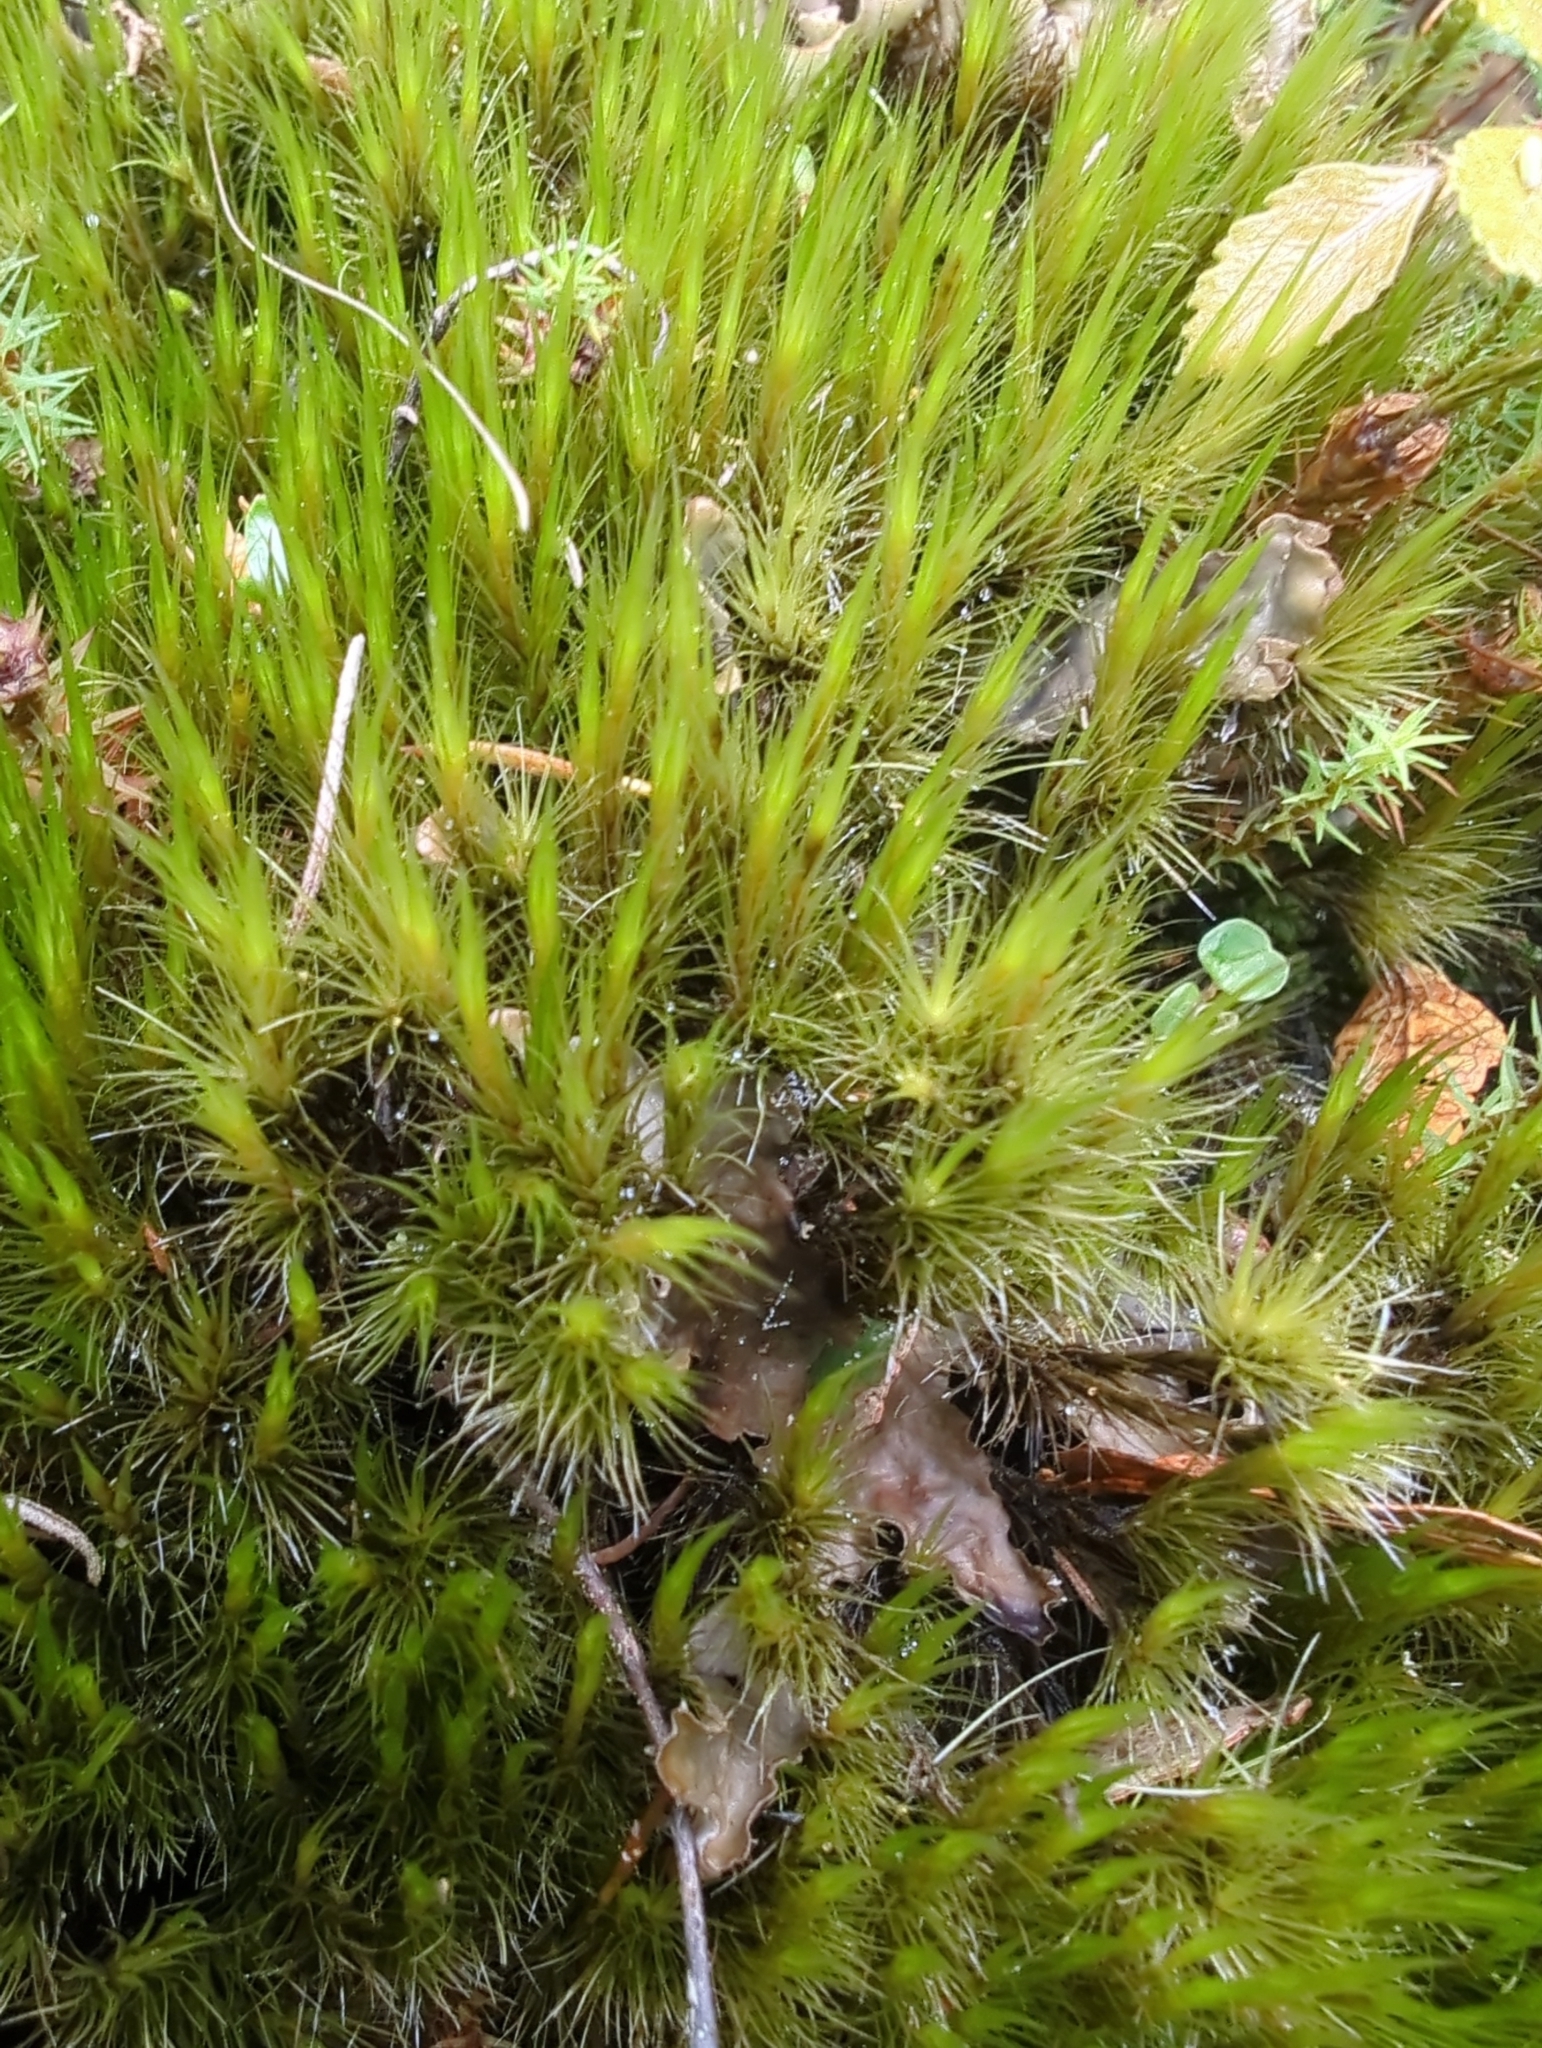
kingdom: Plantae
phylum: Bryophyta
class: Bryopsida
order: Dicranales
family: Leucobryaceae
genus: Campylopus
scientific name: Campylopus introflexus
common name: Heath star moss
